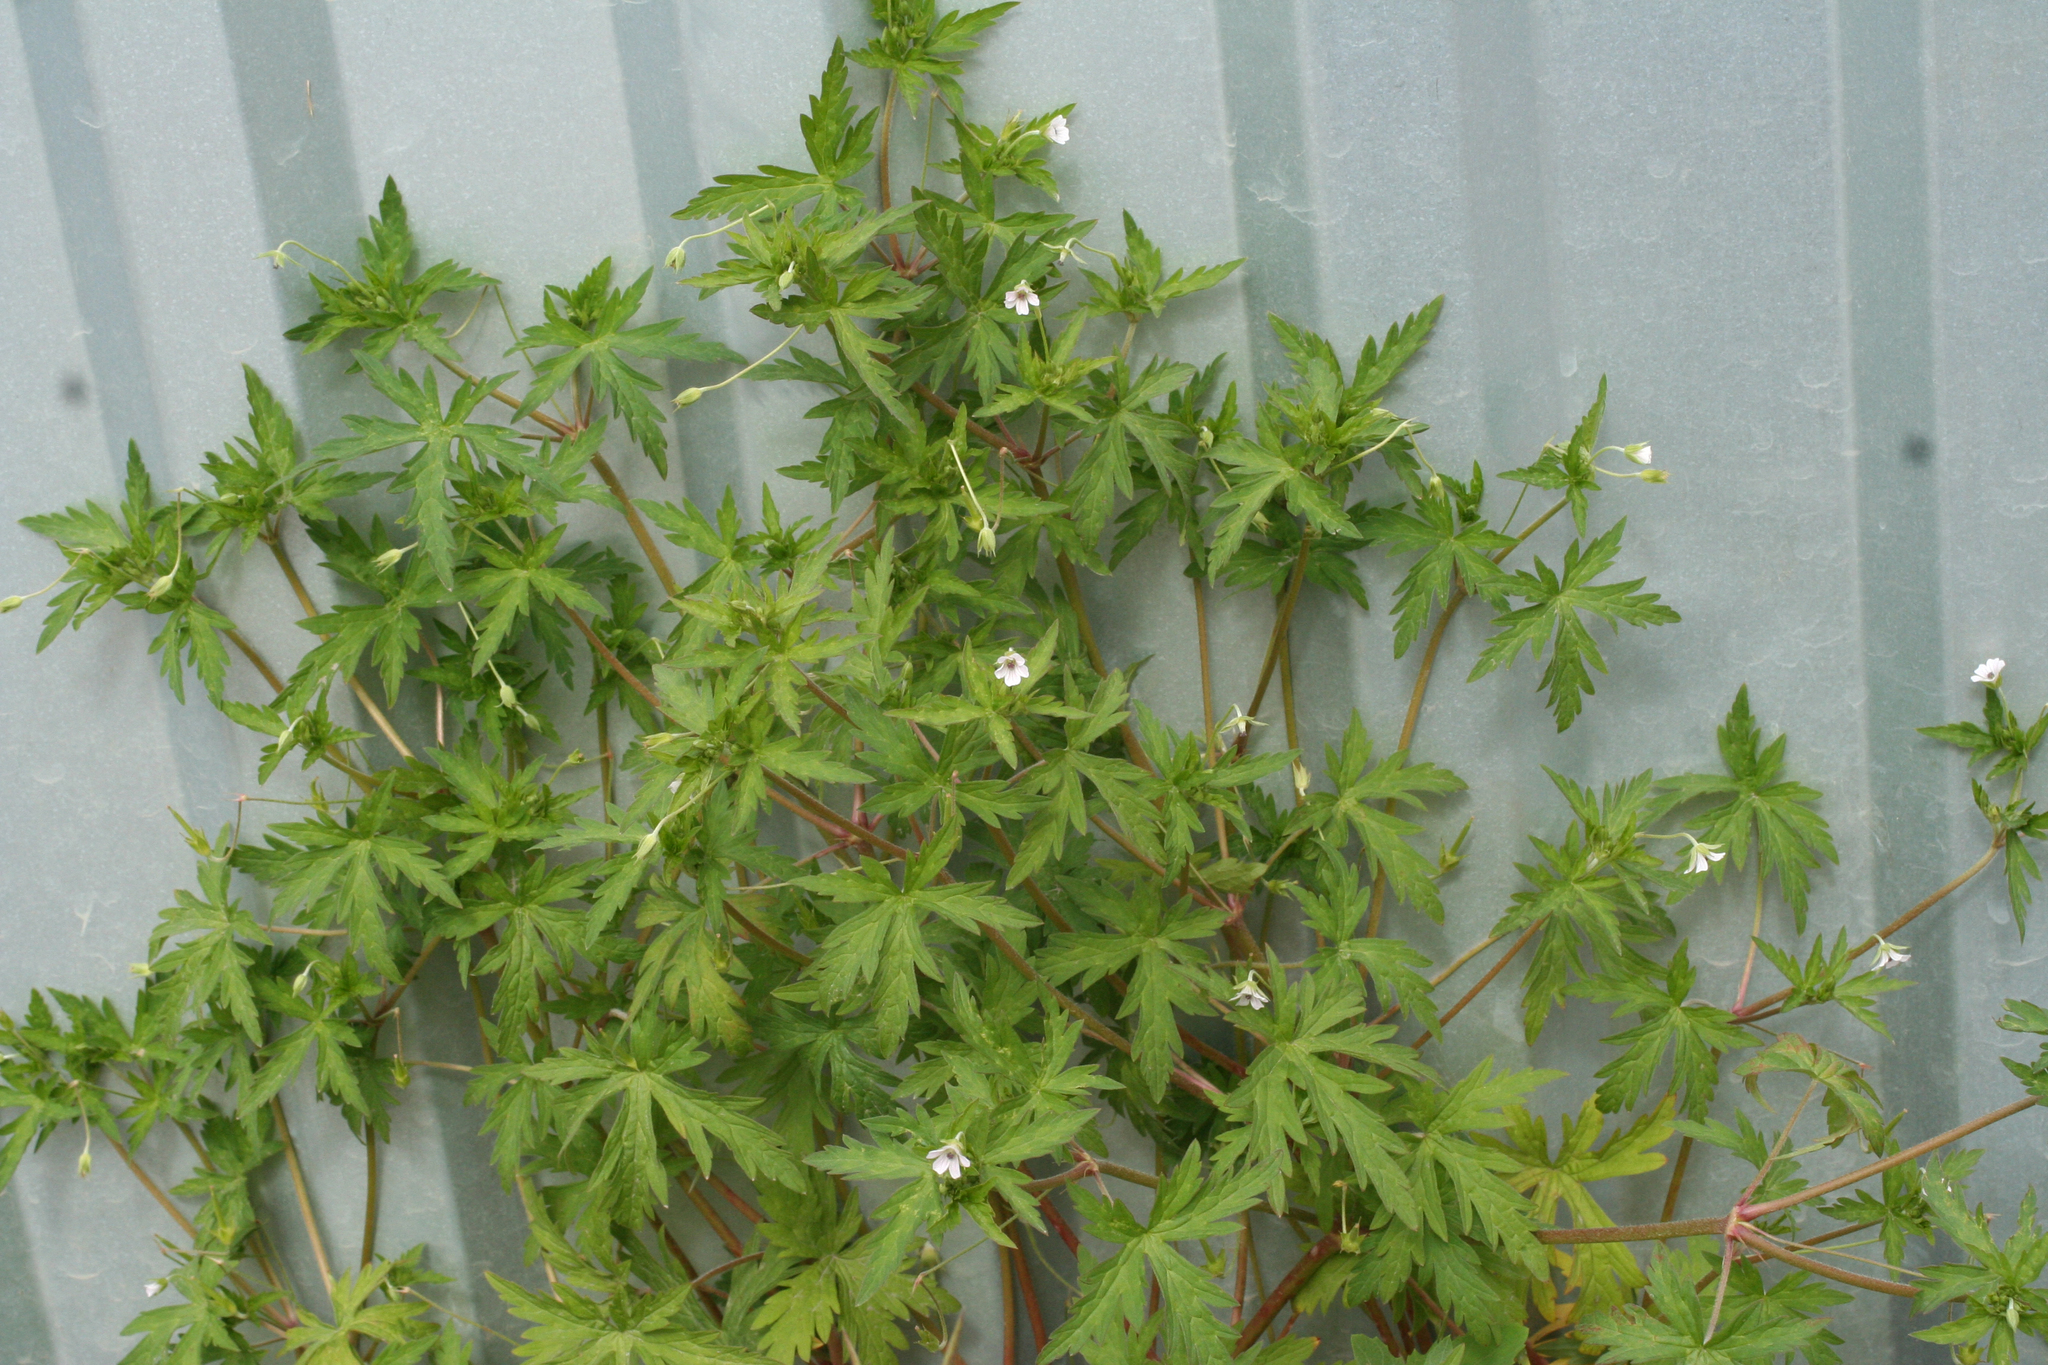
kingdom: Plantae
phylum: Tracheophyta
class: Magnoliopsida
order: Geraniales
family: Geraniaceae
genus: Geranium
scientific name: Geranium sibiricum
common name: Siberian crane's-bill
